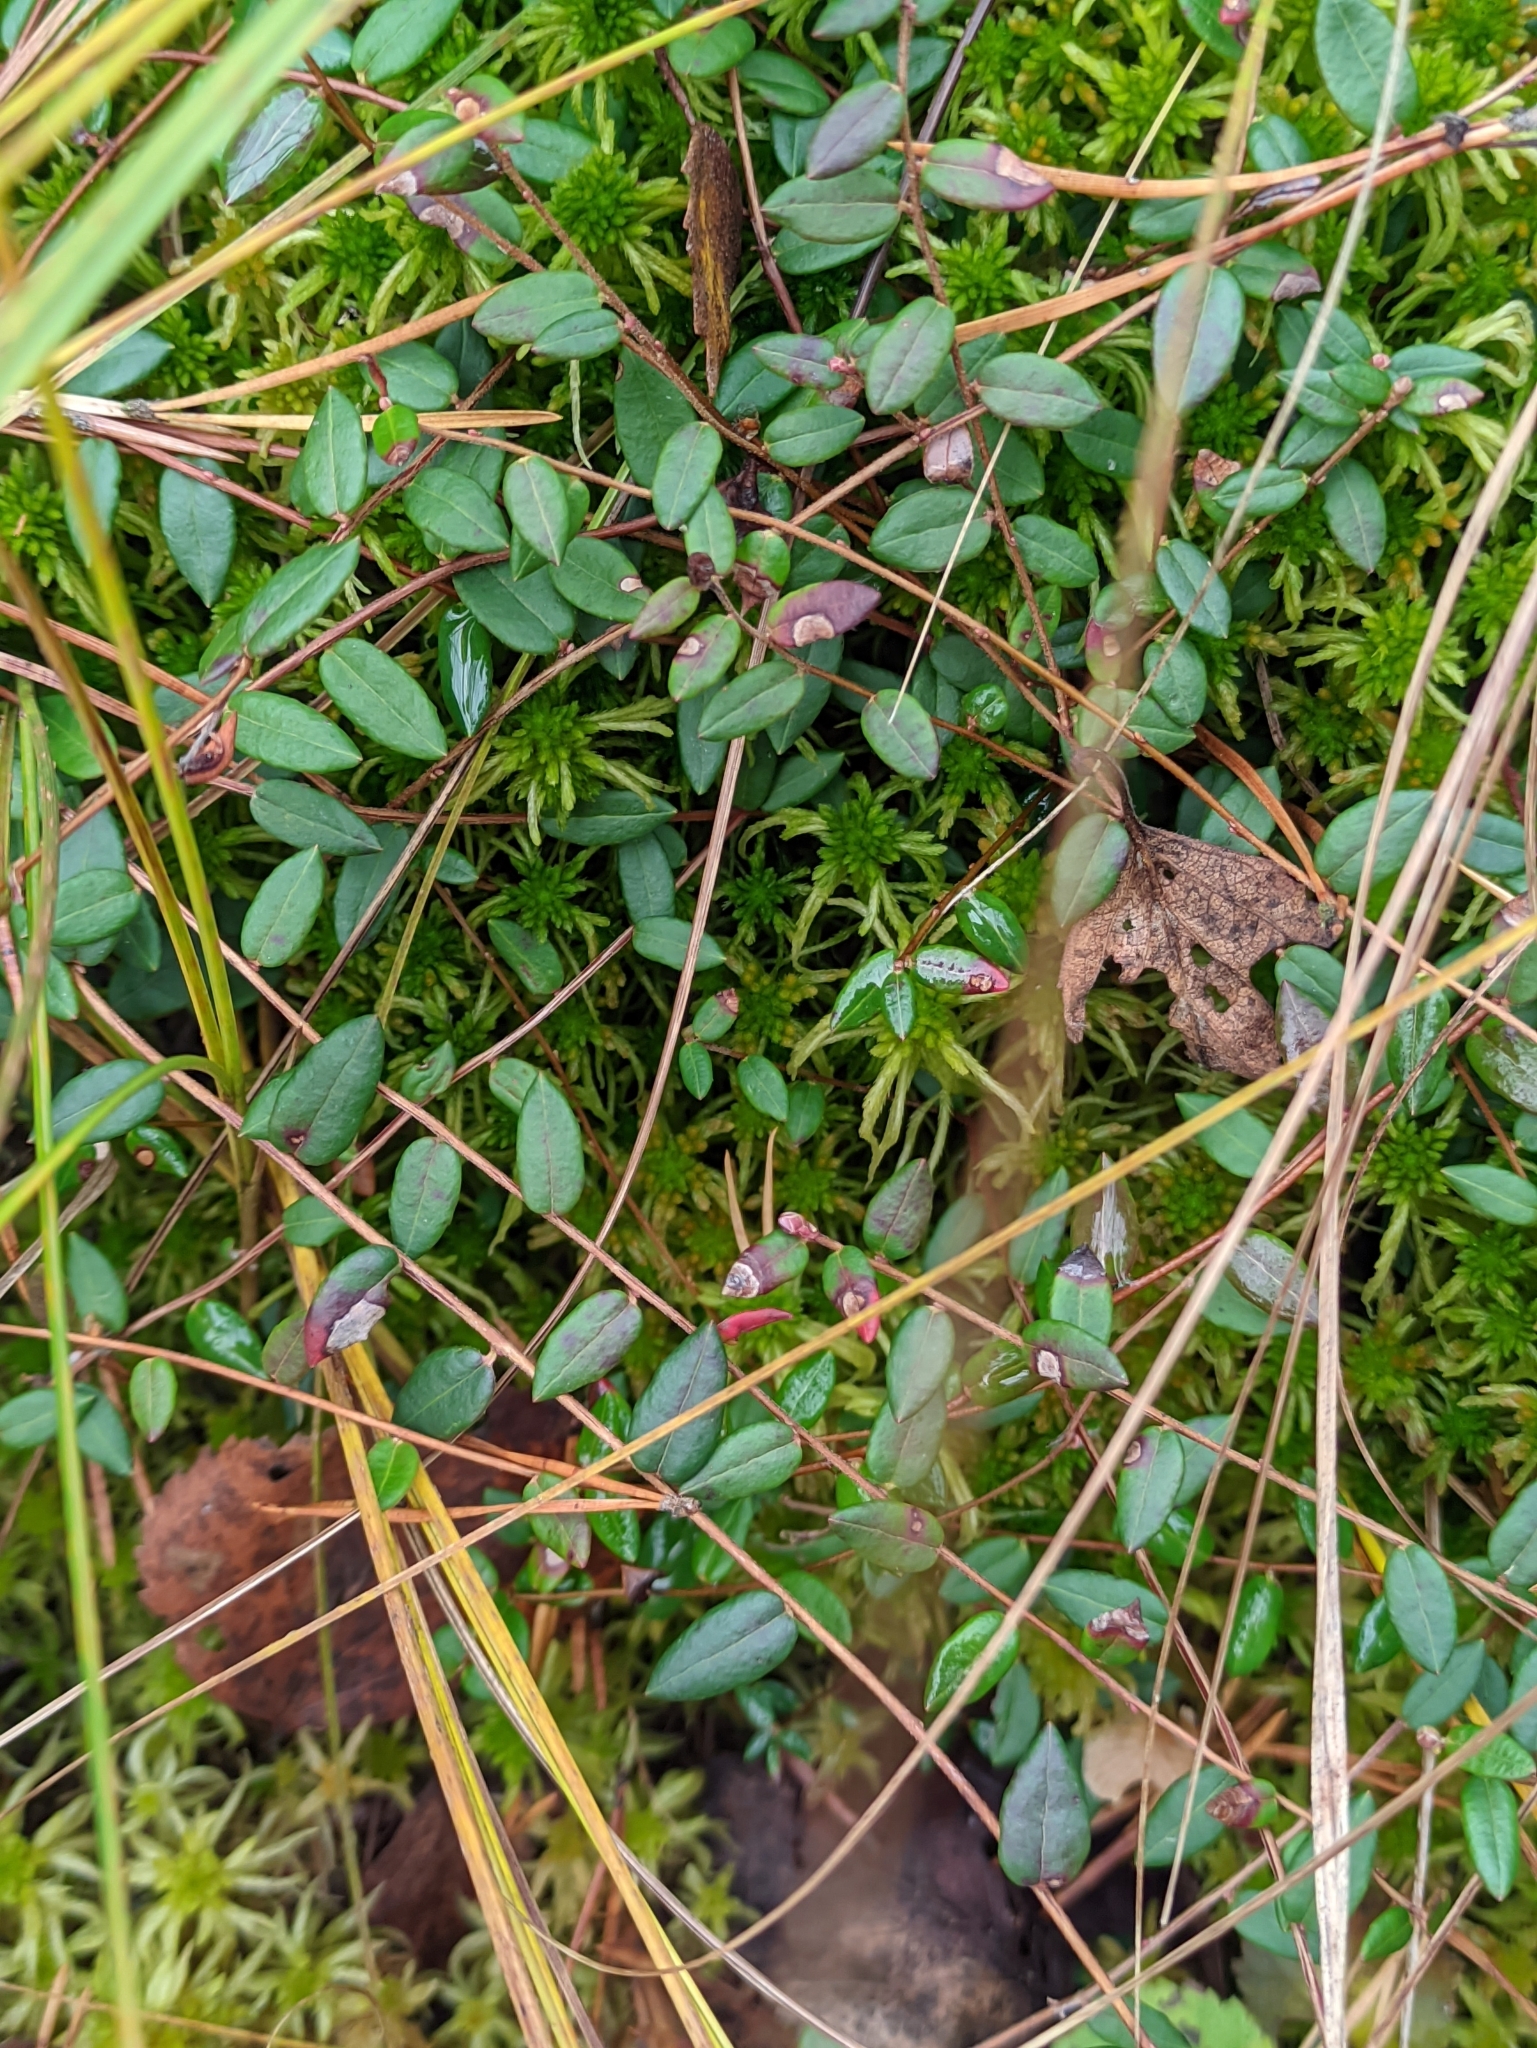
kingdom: Plantae
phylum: Tracheophyta
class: Magnoliopsida
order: Ericales
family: Ericaceae
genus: Vaccinium
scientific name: Vaccinium oxycoccos
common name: Cranberry
